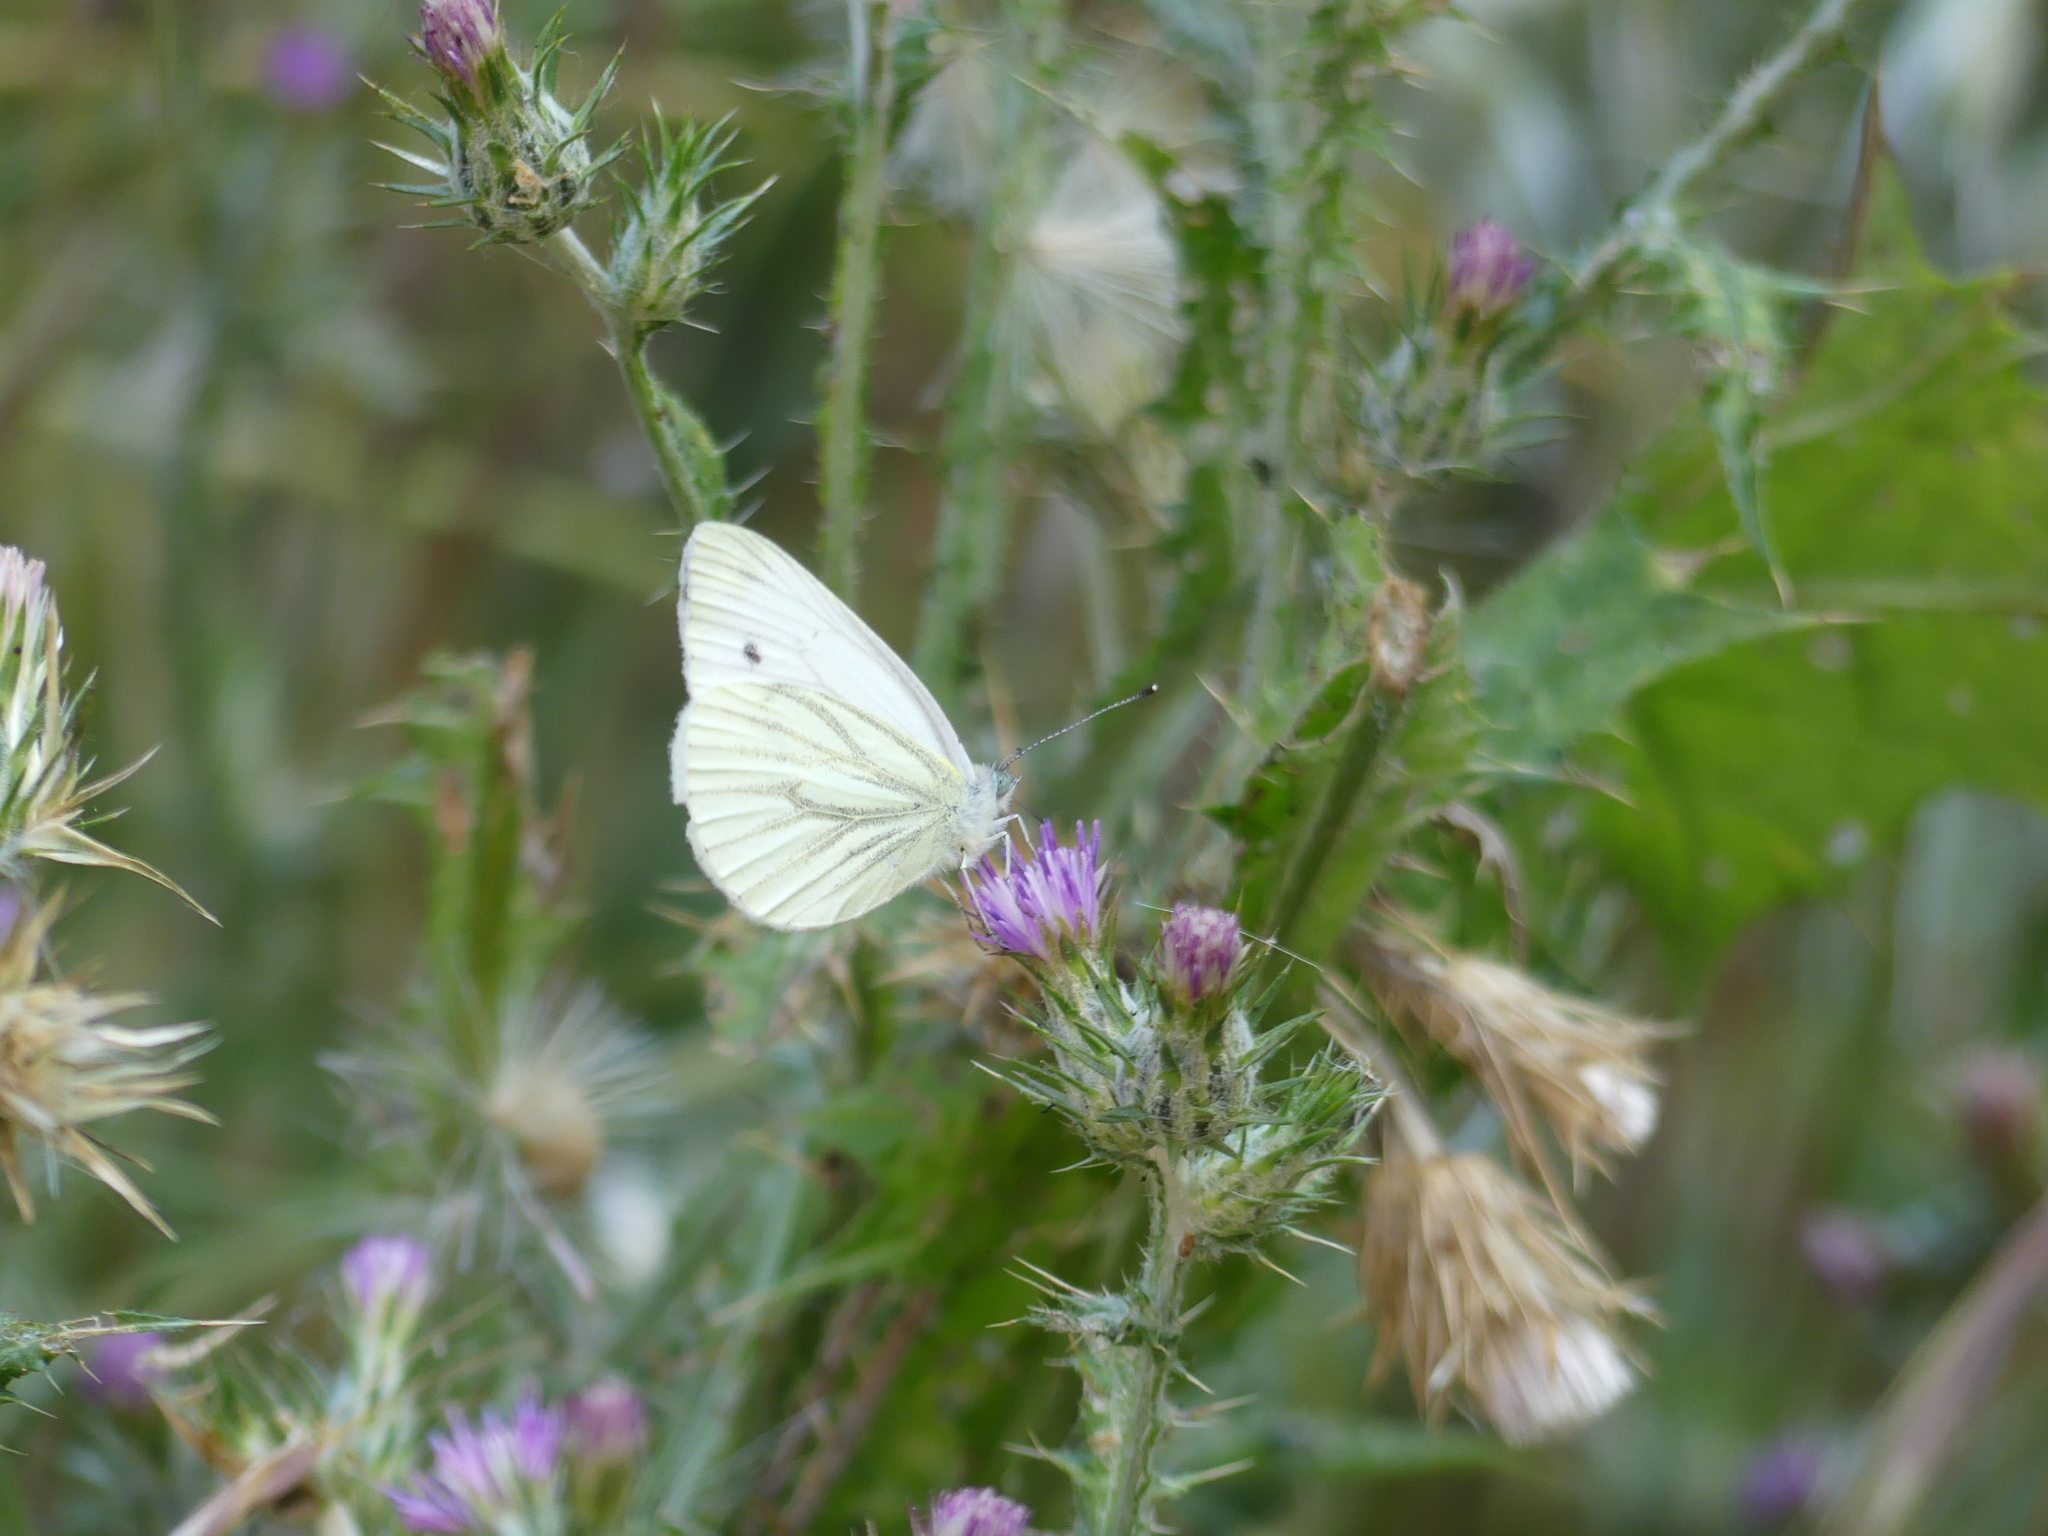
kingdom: Animalia
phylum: Arthropoda
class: Insecta
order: Lepidoptera
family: Pieridae
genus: Pieris
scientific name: Pieris napi
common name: Green-veined white
